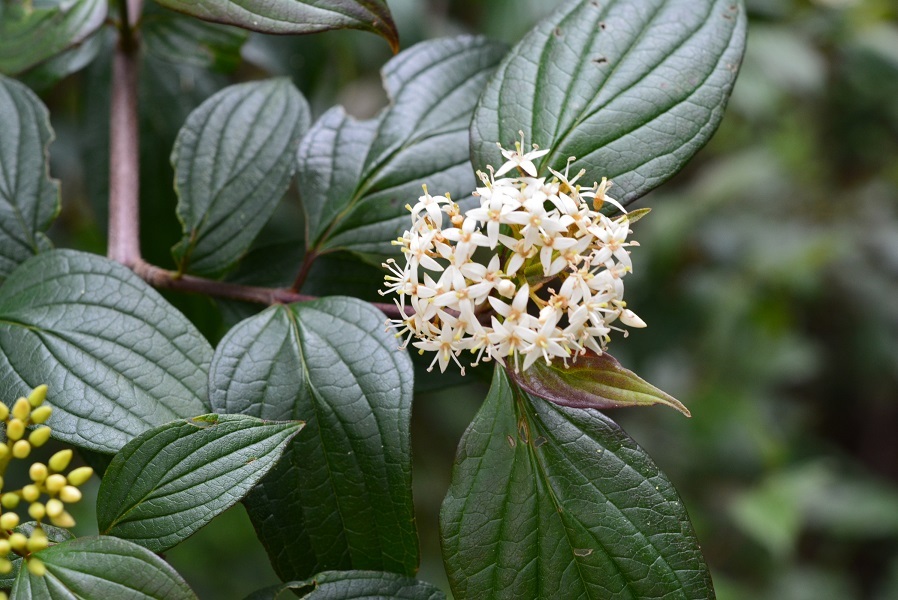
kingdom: Plantae
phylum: Tracheophyta
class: Magnoliopsida
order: Cornales
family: Cornaceae
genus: Cornus
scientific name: Cornus excelsa
